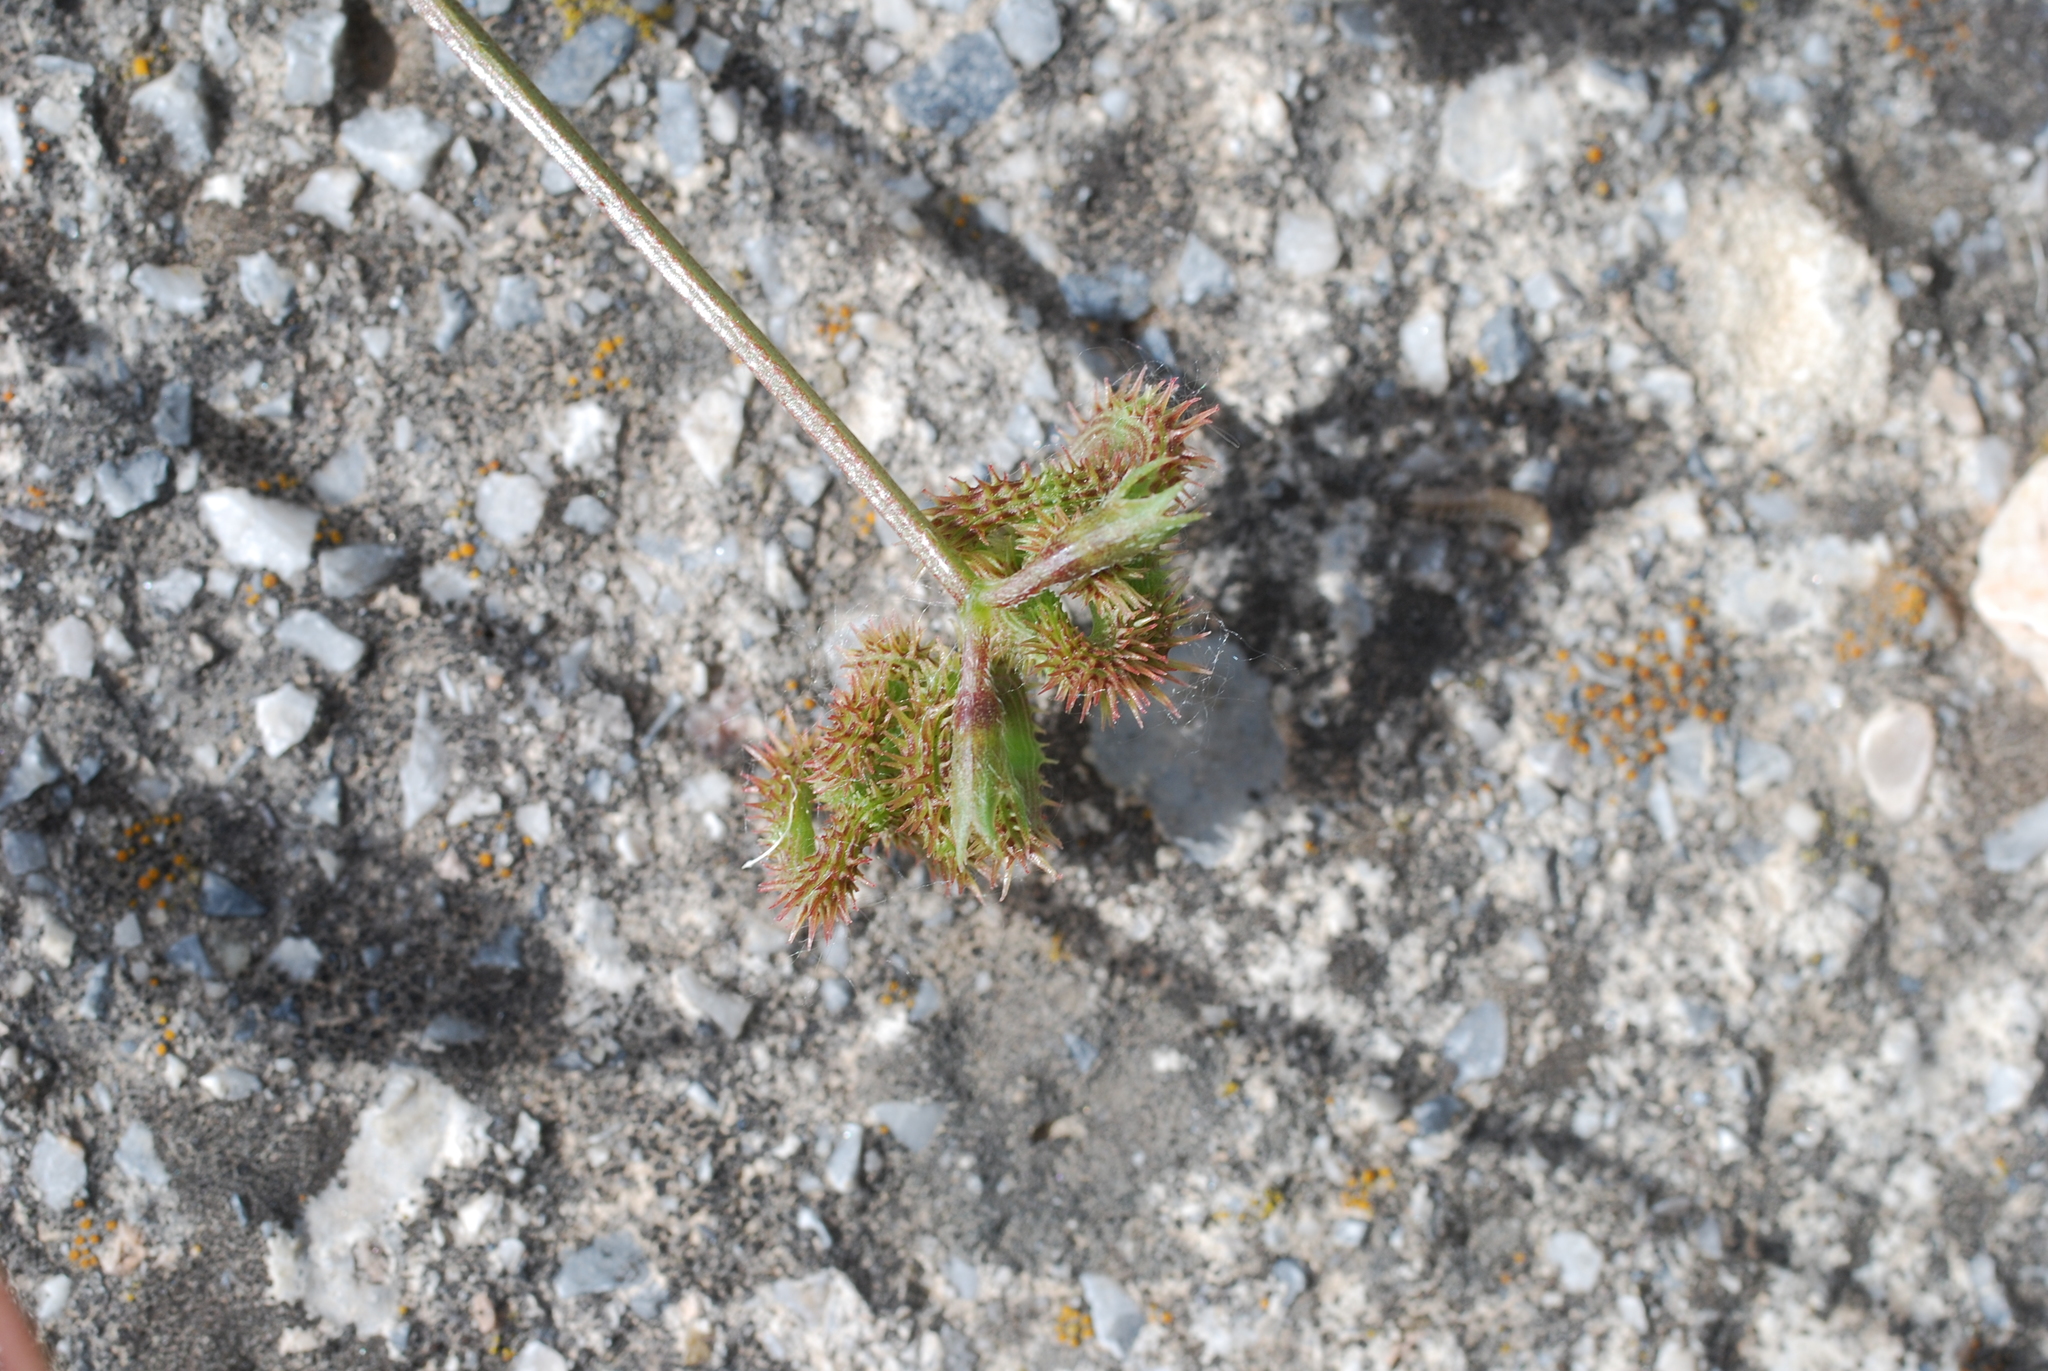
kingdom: Plantae
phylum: Tracheophyta
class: Magnoliopsida
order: Fabales
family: Fabaceae
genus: Scorpiurus
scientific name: Scorpiurus muricatus
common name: Caterpillar-plant
